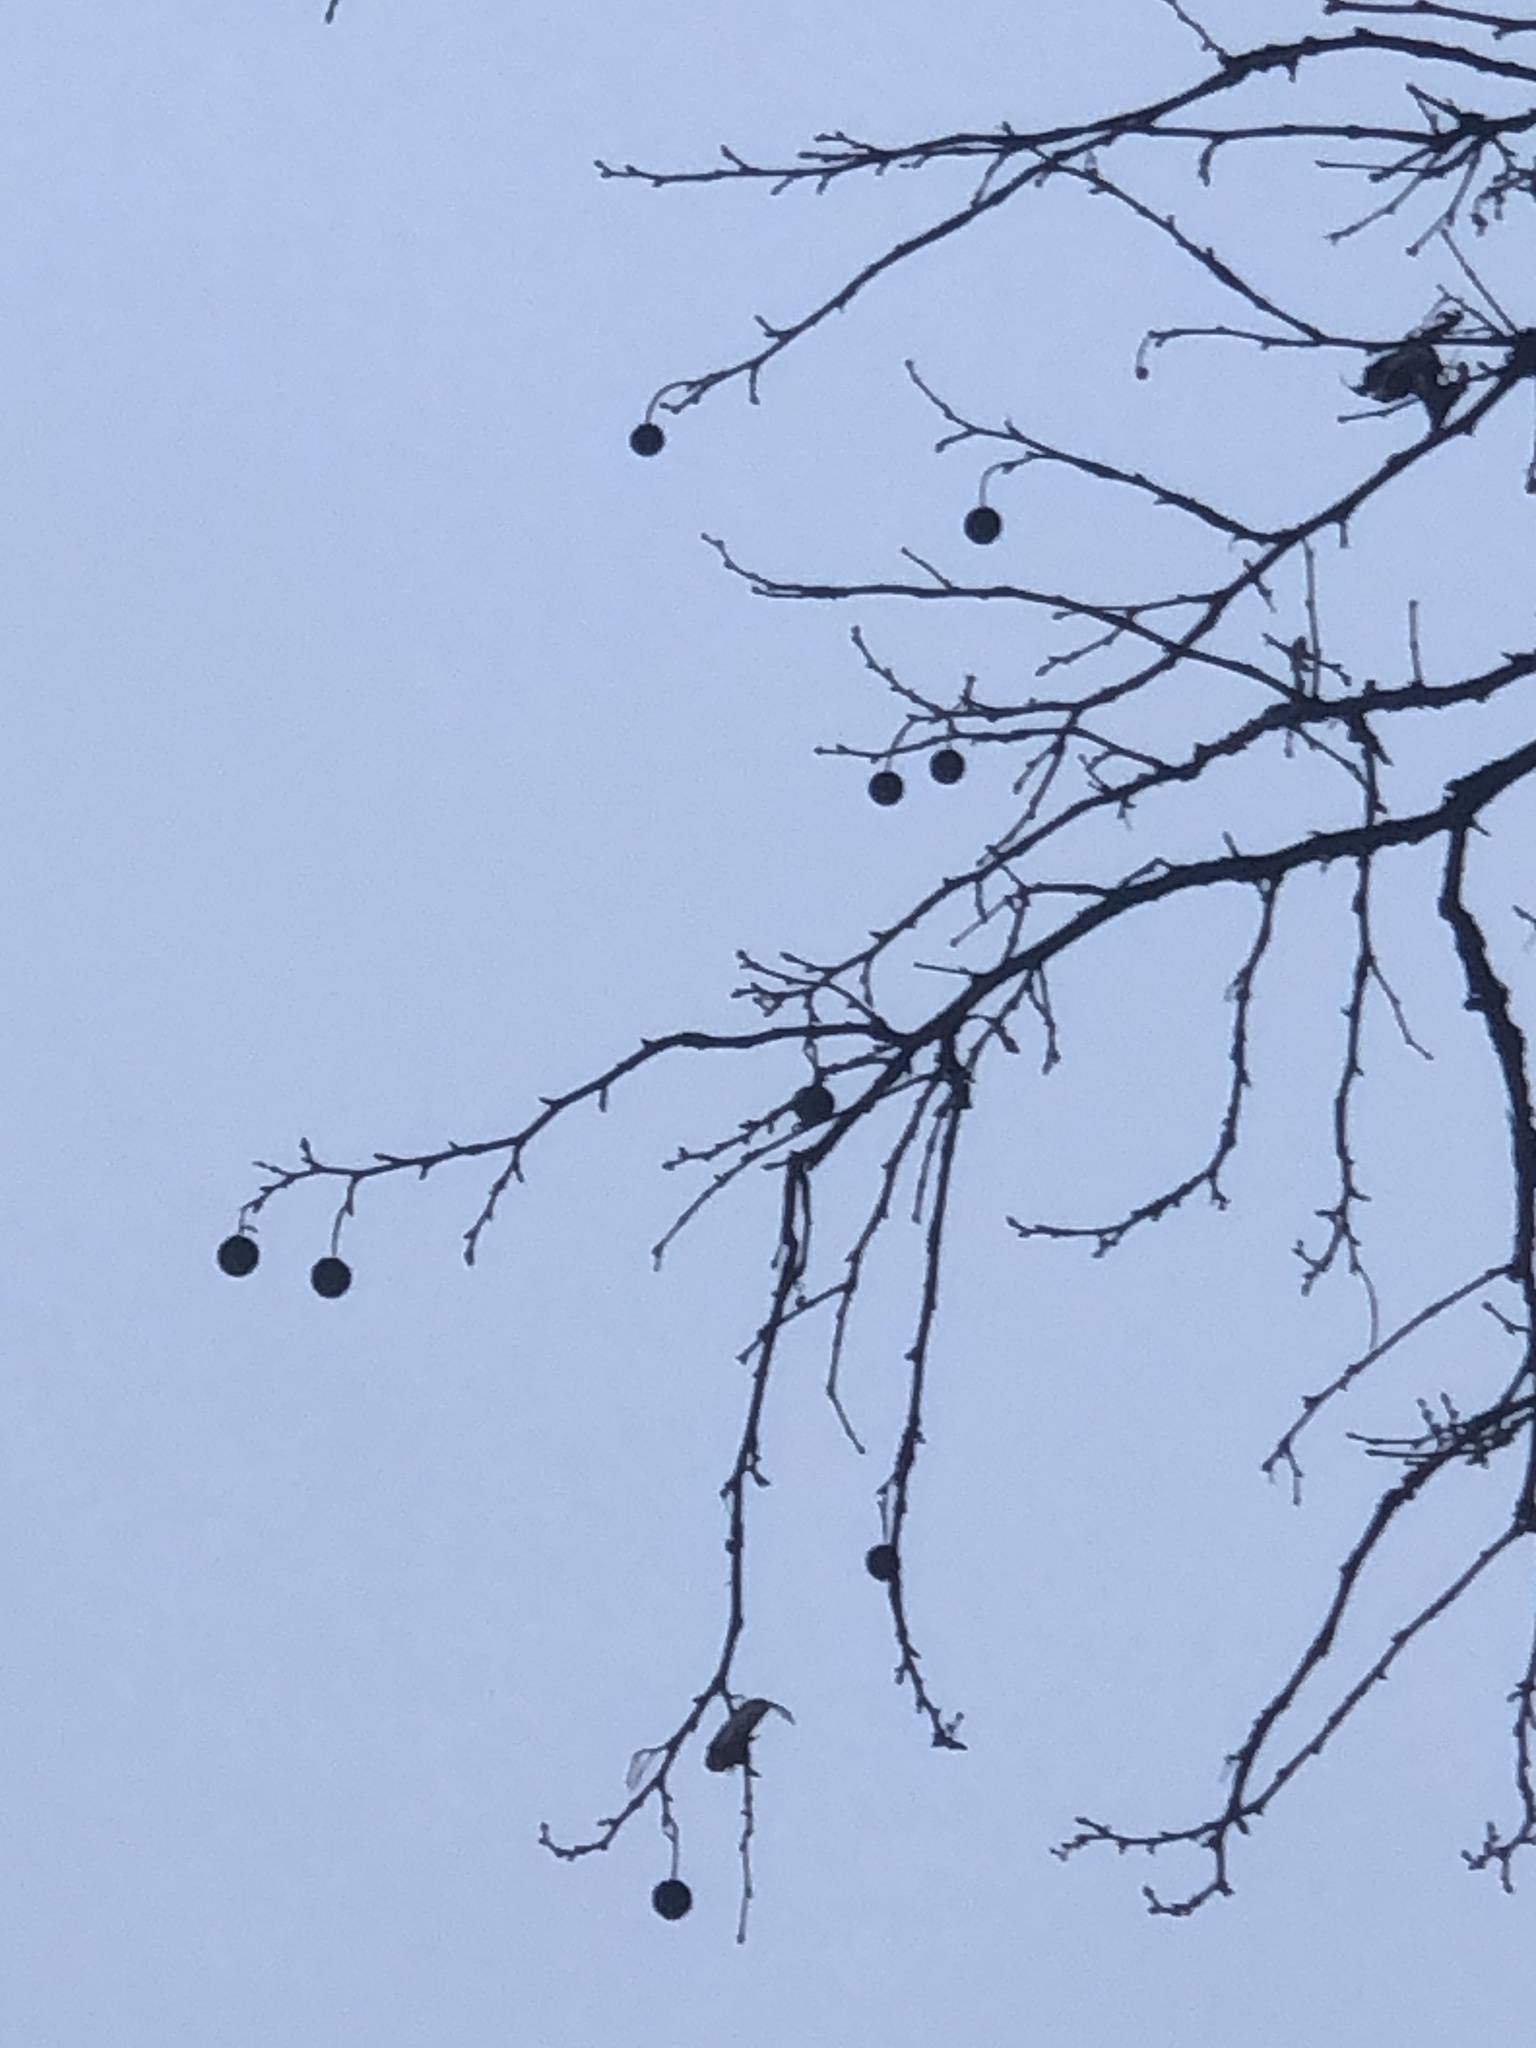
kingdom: Plantae
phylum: Tracheophyta
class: Magnoliopsida
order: Proteales
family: Platanaceae
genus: Platanus
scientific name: Platanus occidentalis
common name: American sycamore
